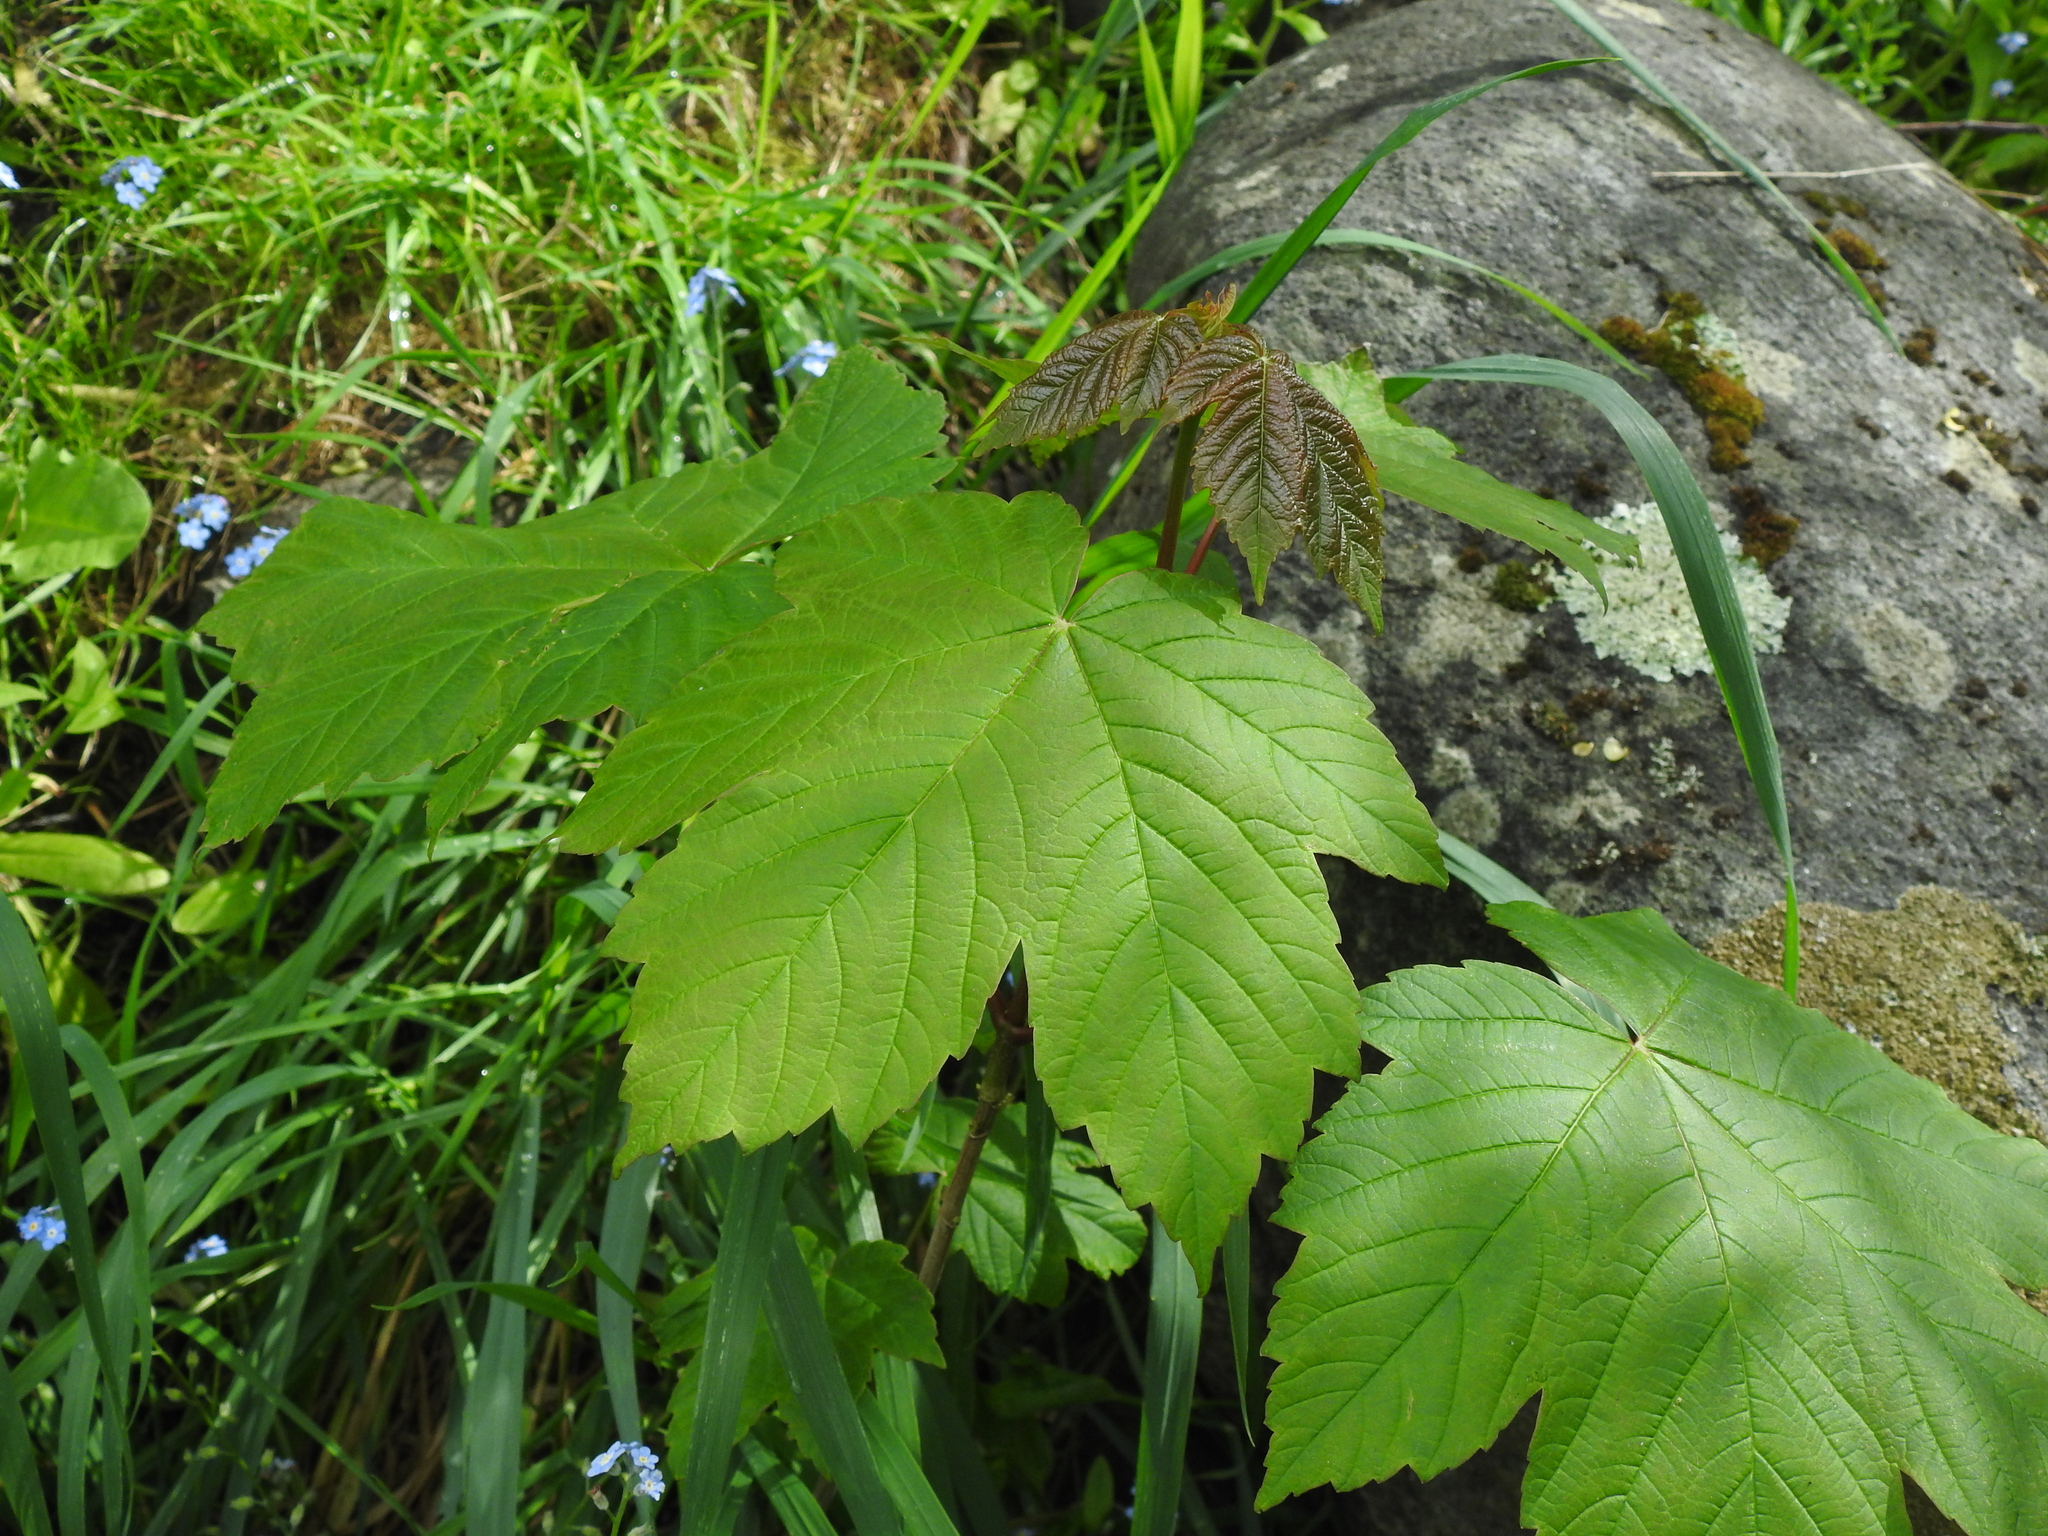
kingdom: Plantae
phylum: Tracheophyta
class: Magnoliopsida
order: Sapindales
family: Sapindaceae
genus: Acer
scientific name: Acer pseudoplatanus
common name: Sycamore
